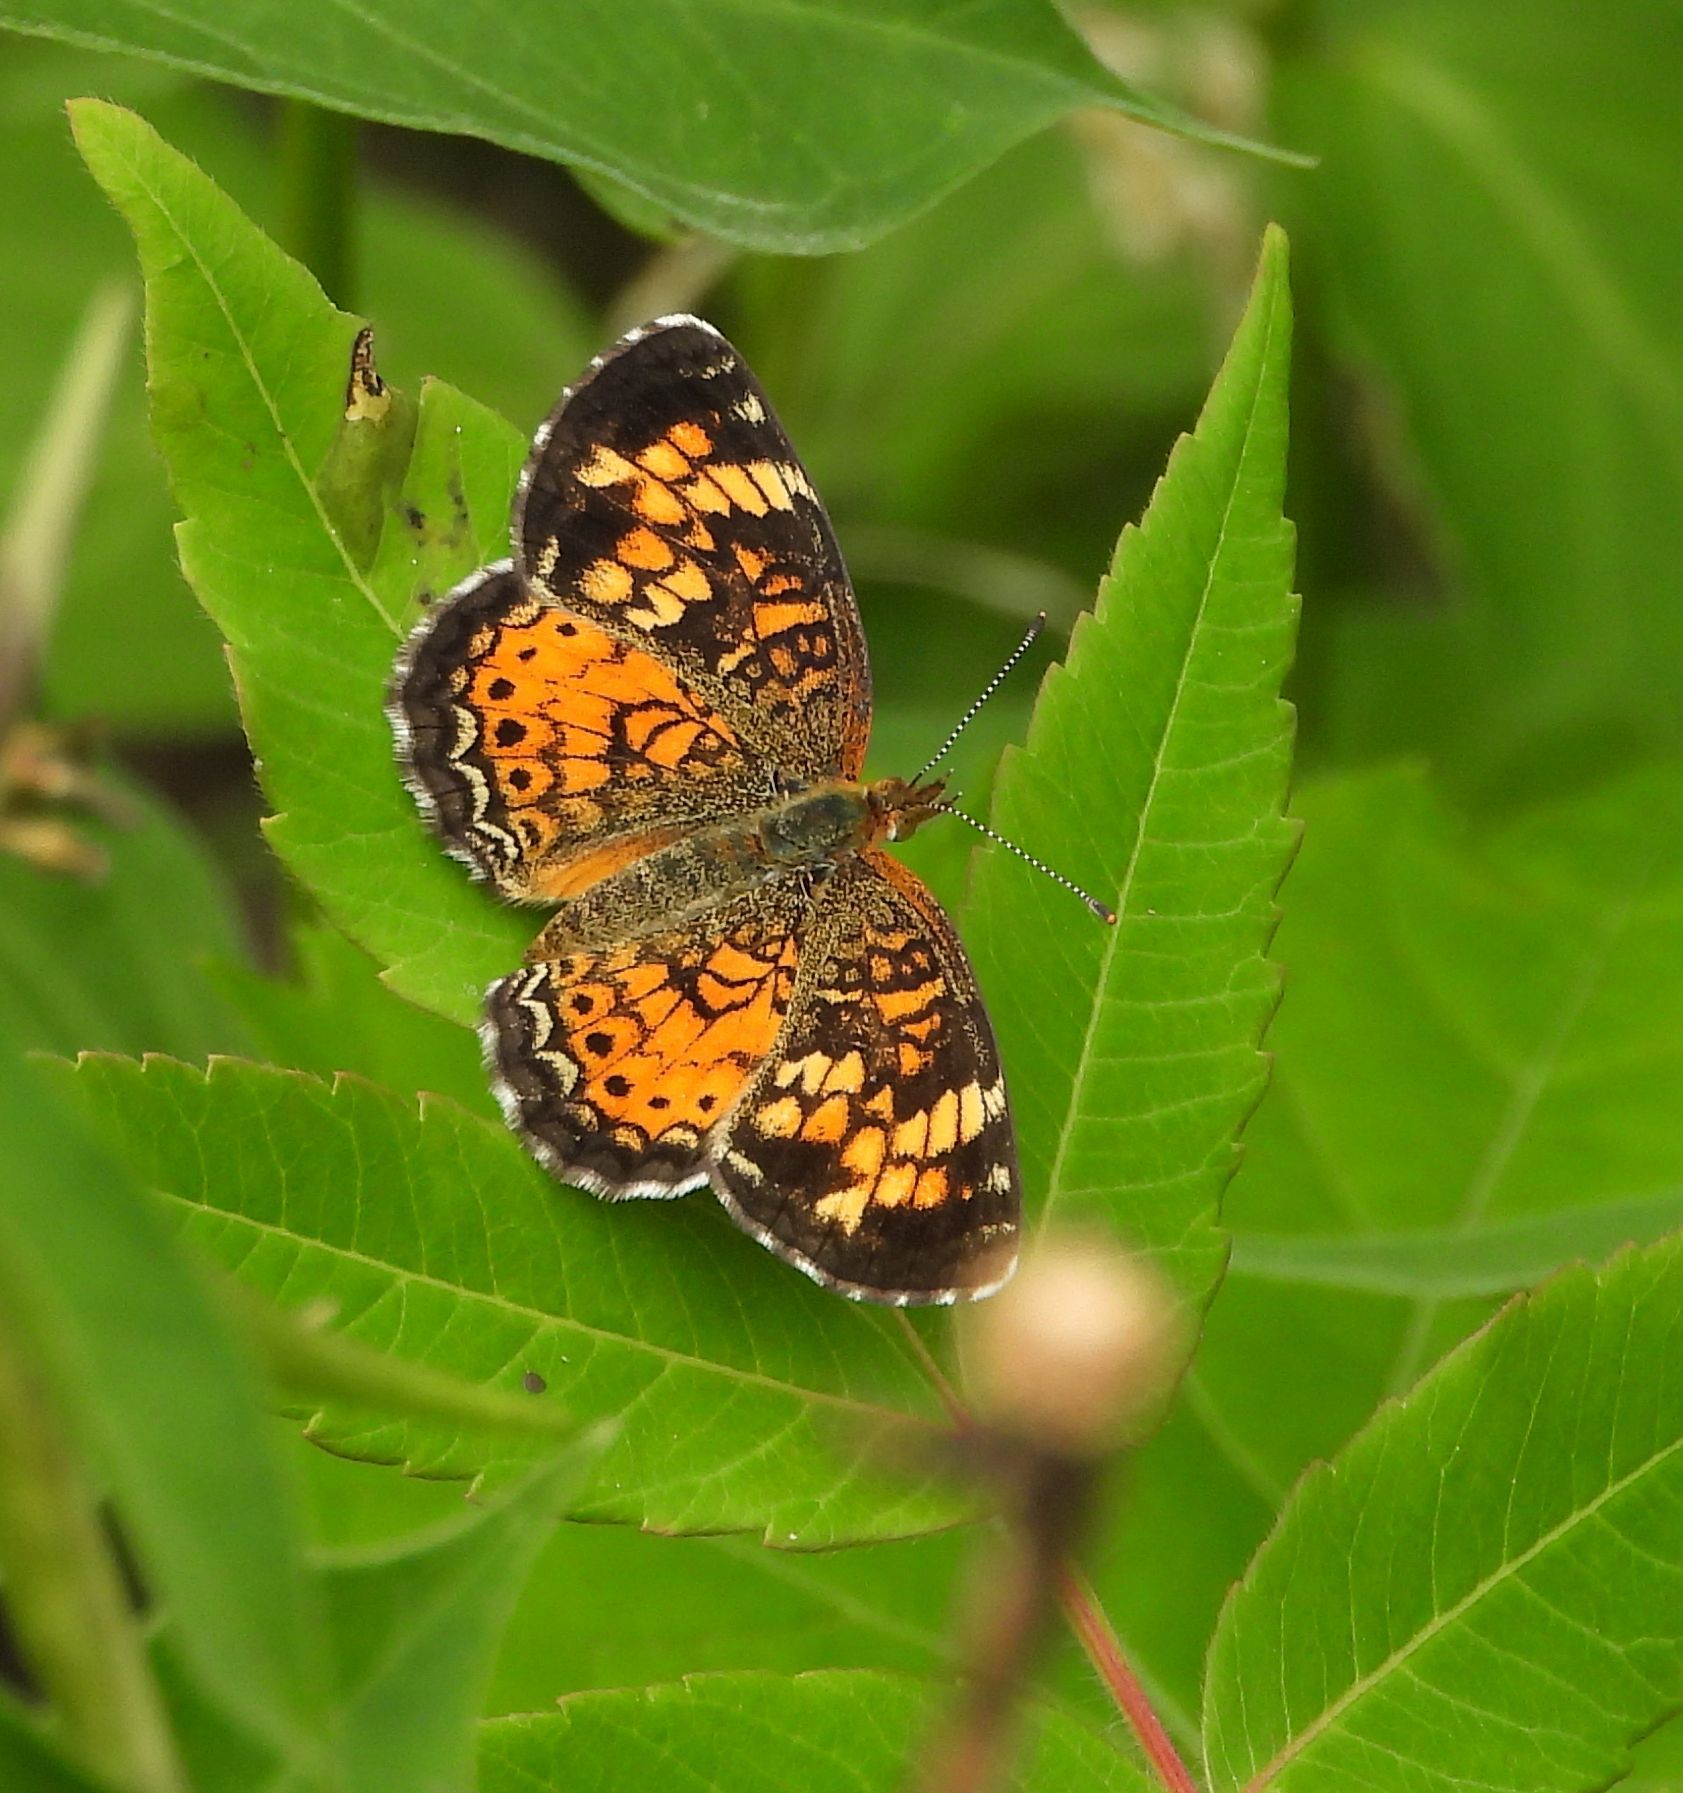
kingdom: Animalia
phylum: Arthropoda
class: Insecta
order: Lepidoptera
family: Nymphalidae
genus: Phyciodes
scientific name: Phyciodes tharos
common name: Pearl crescent
